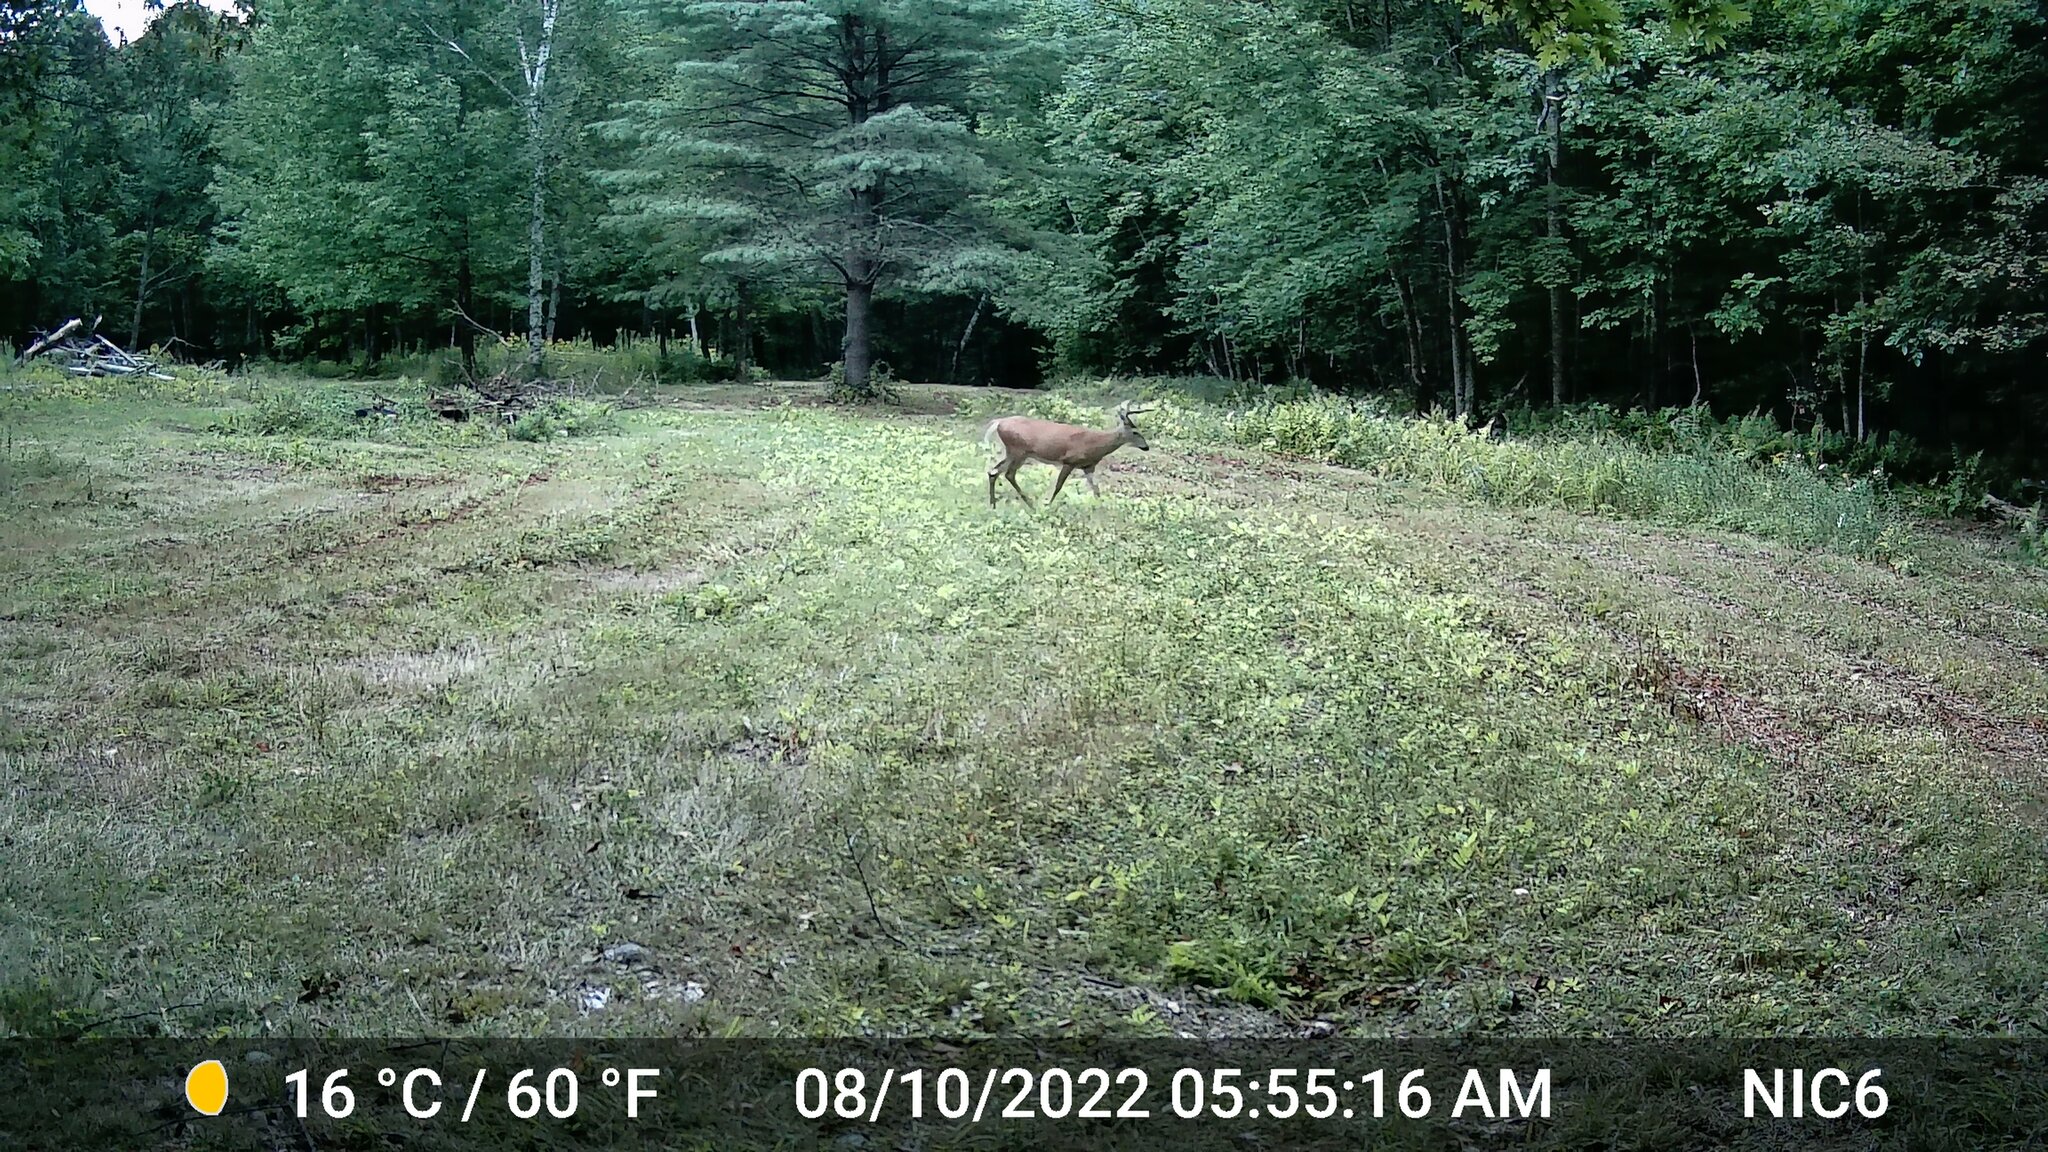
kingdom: Animalia
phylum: Chordata
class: Mammalia
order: Artiodactyla
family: Cervidae
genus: Odocoileus
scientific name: Odocoileus virginianus
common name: White-tailed deer
